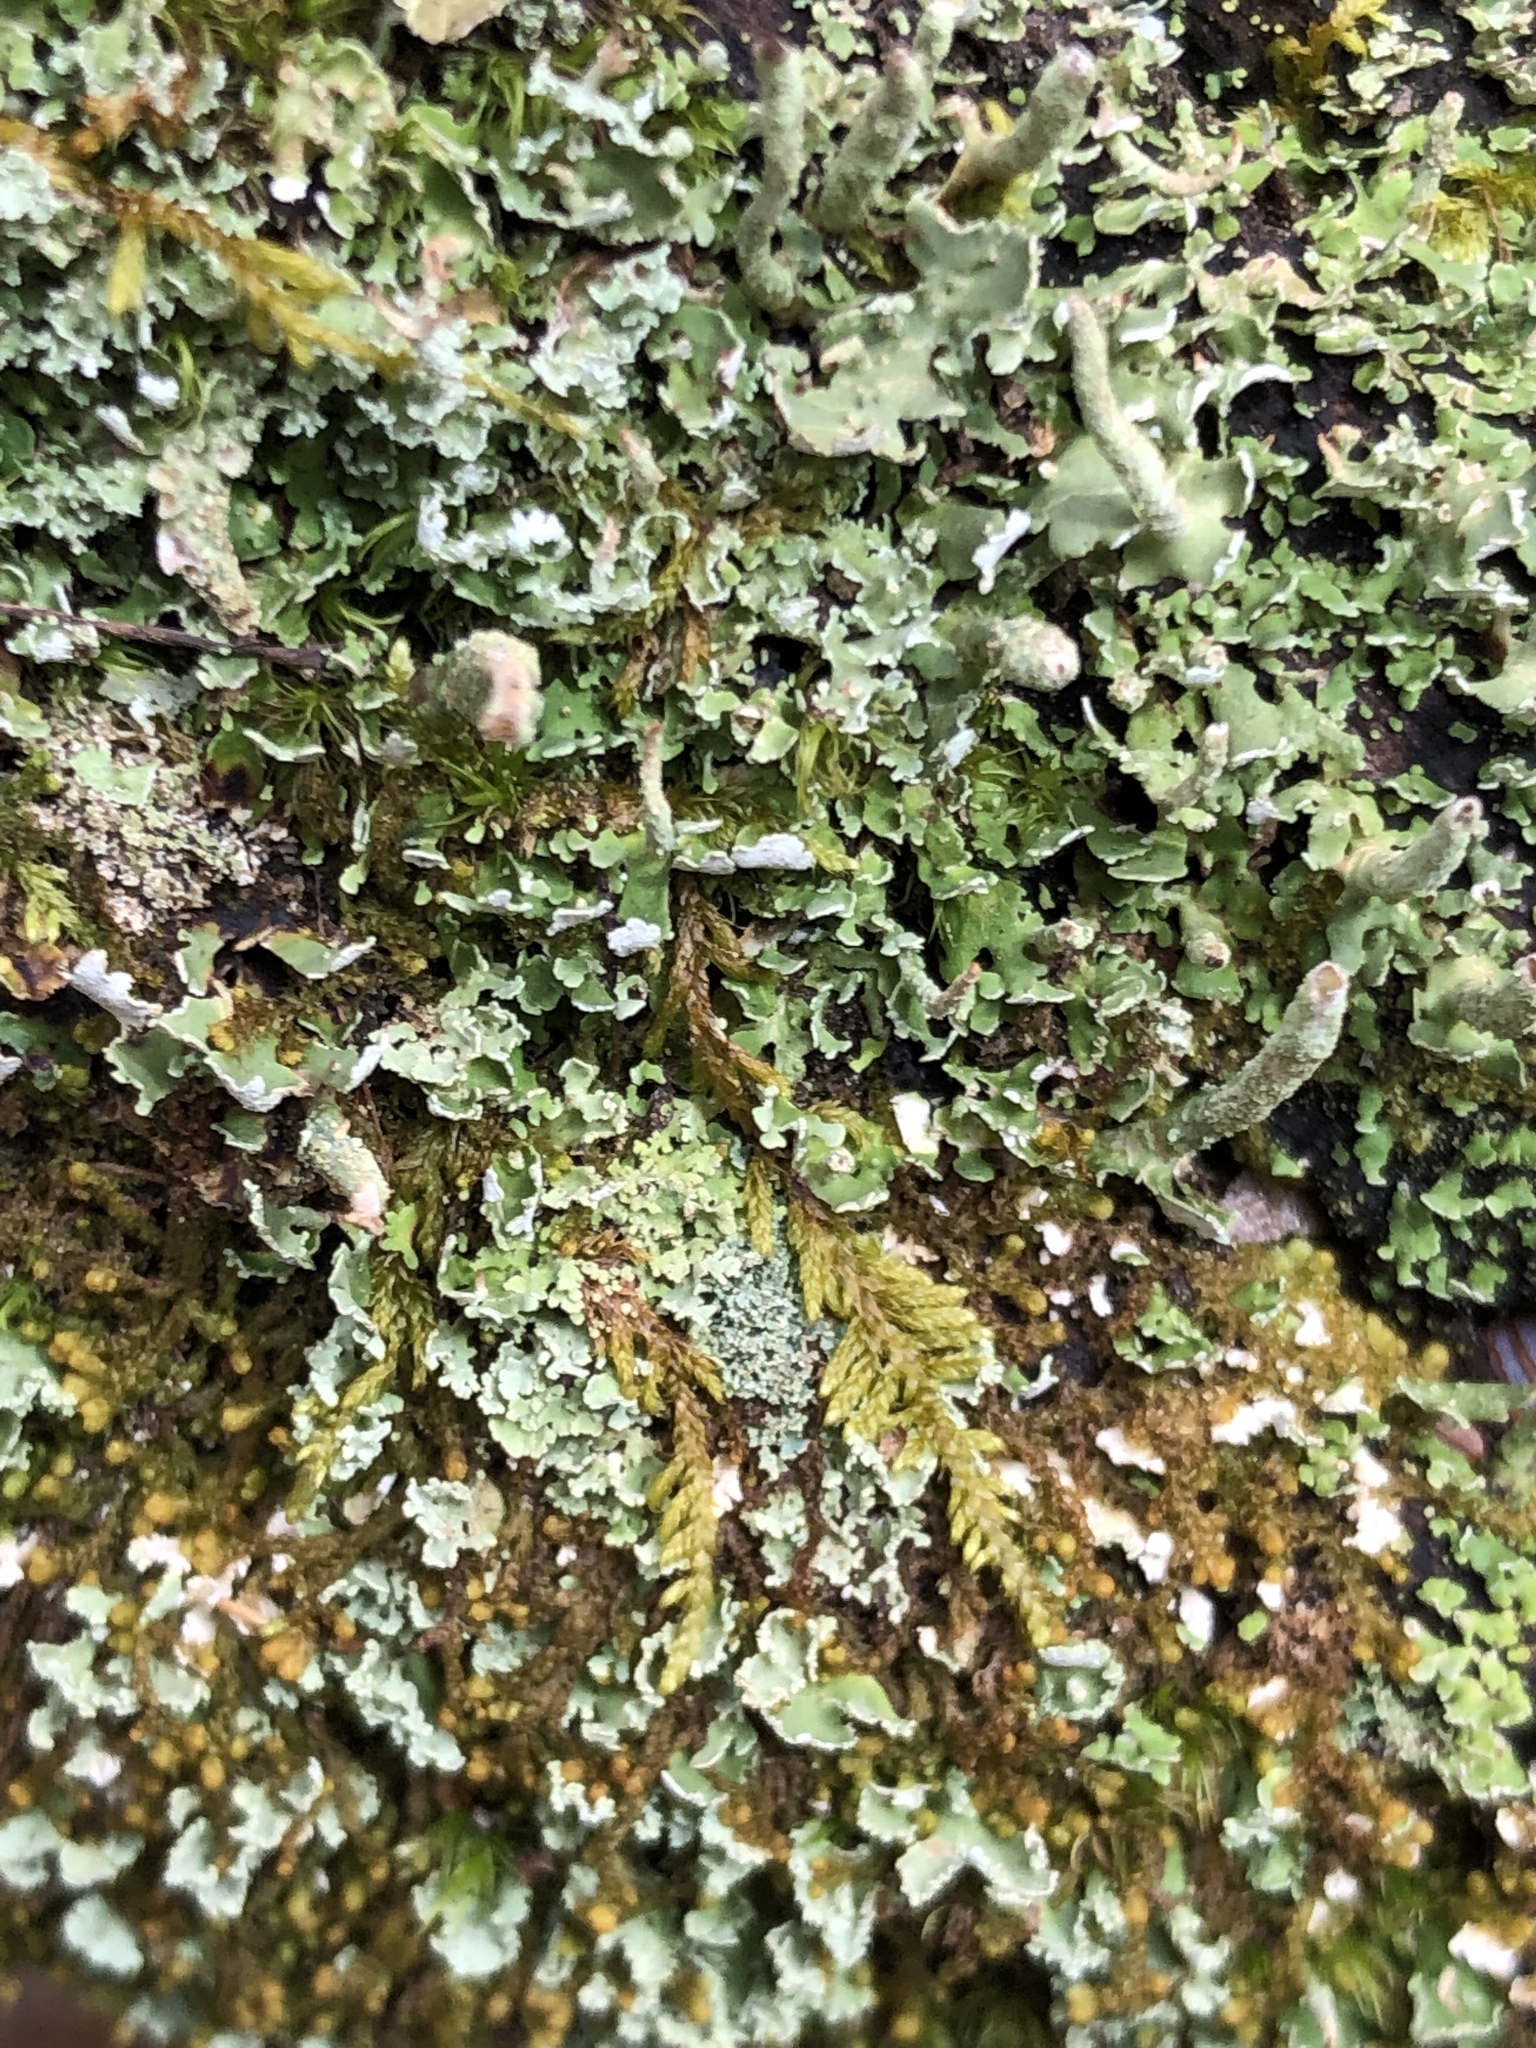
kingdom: Fungi
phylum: Ascomycota
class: Lecanoromycetes
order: Lecanorales
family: Cladoniaceae
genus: Cladonia
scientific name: Cladonia coniocraea
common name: Common powderhorn
